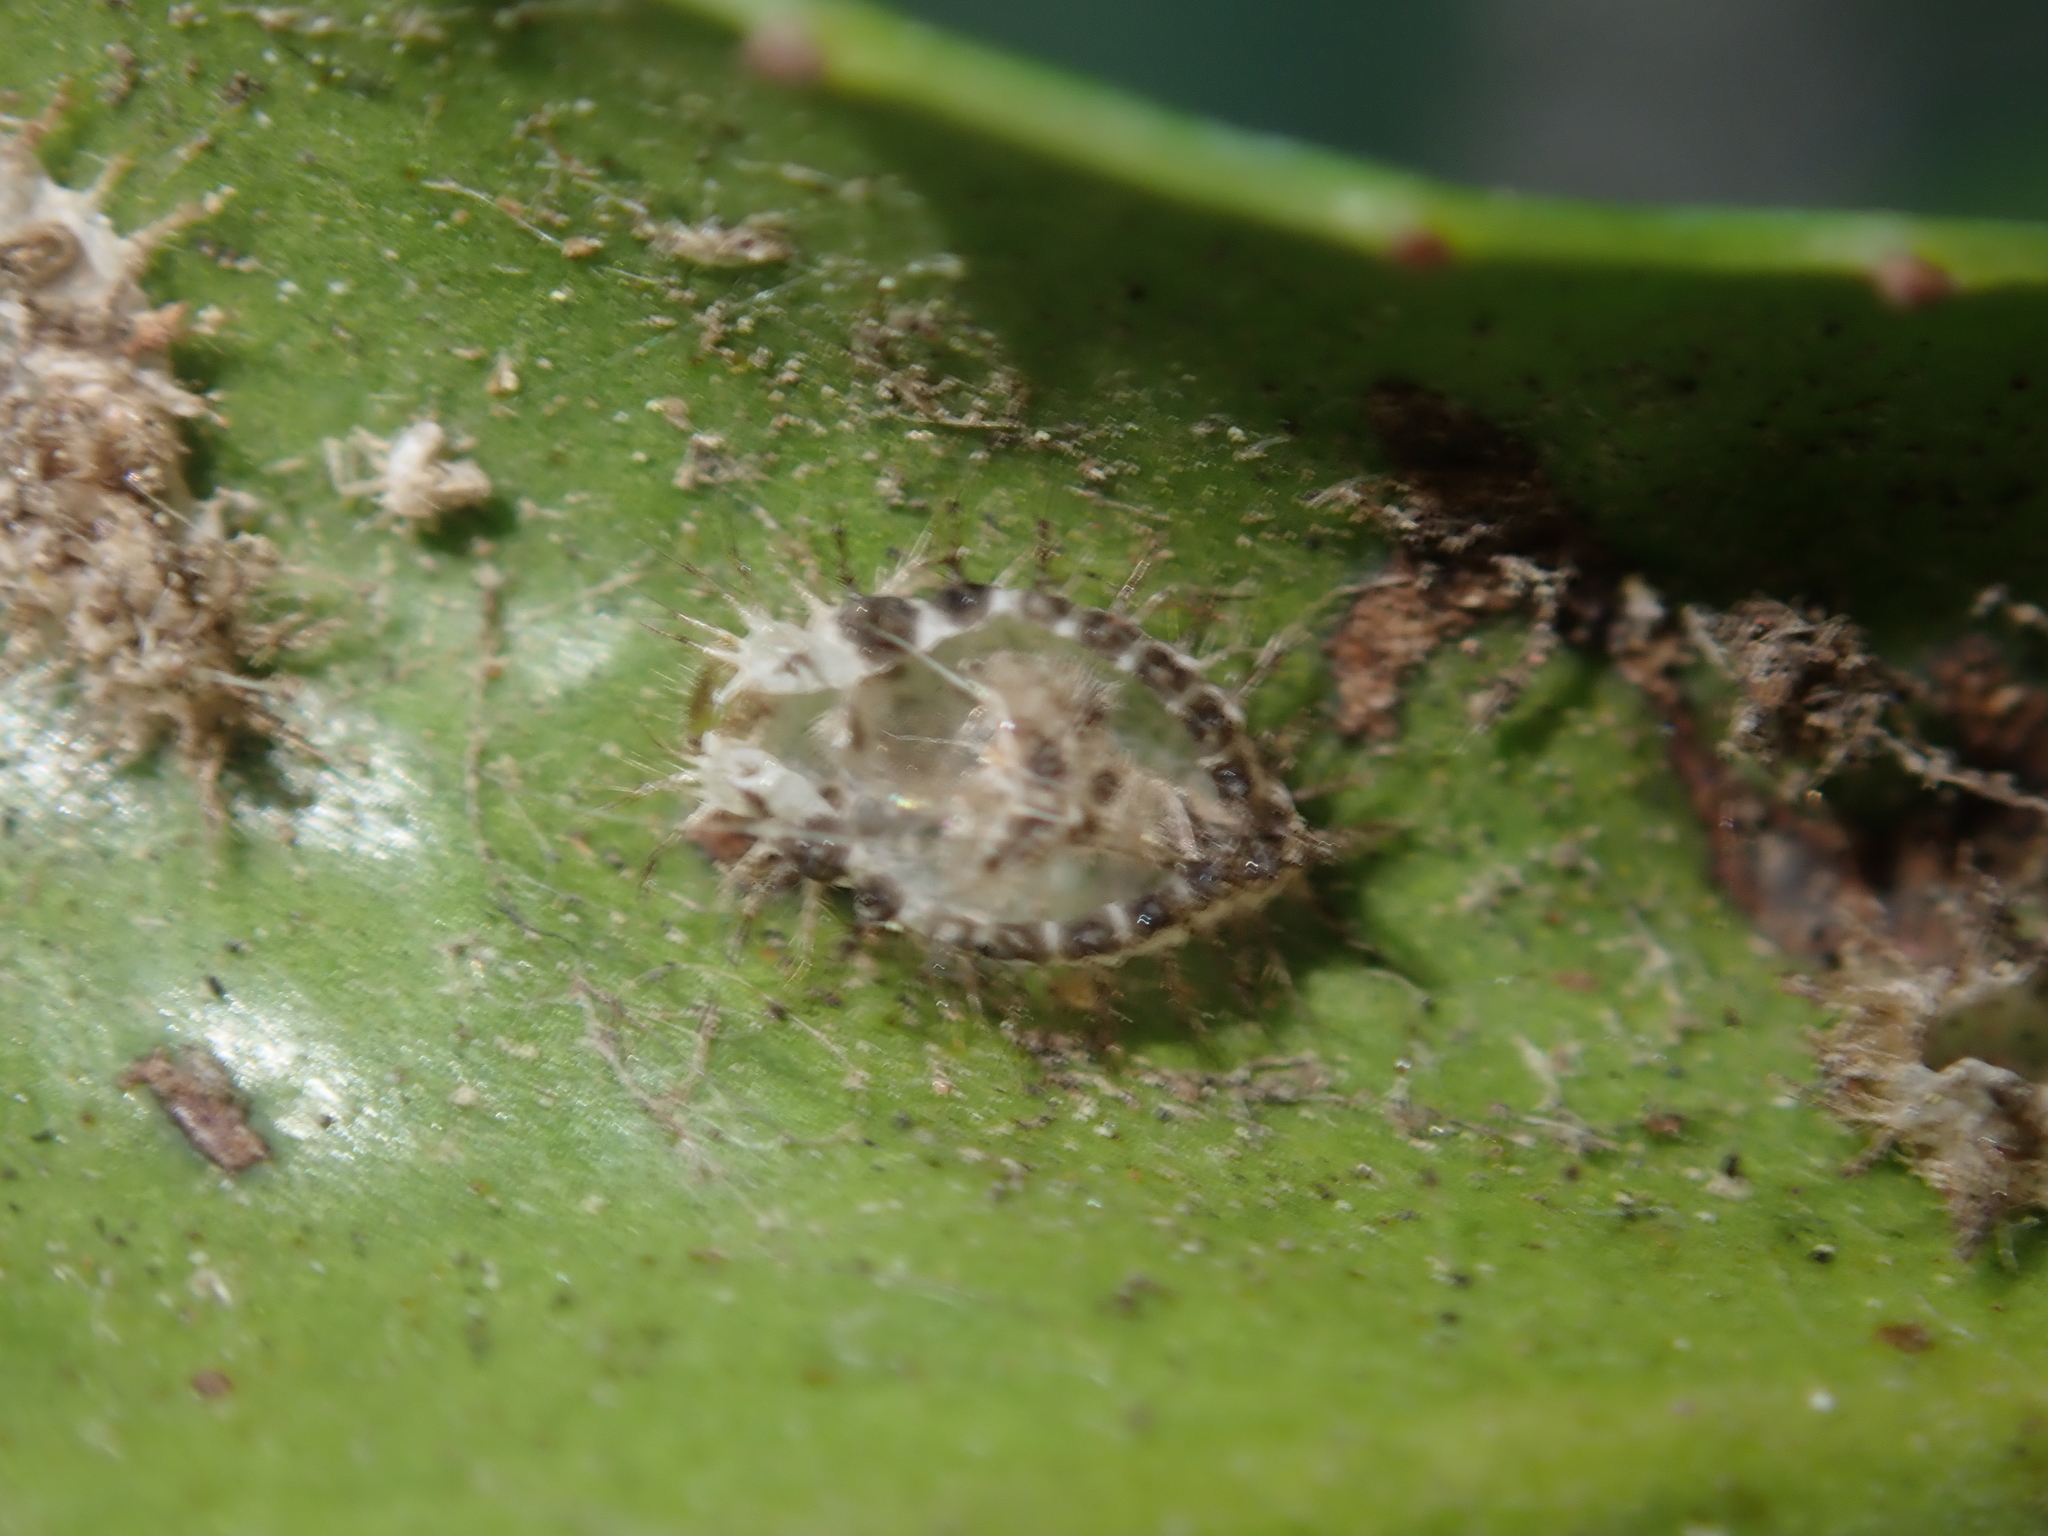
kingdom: Animalia
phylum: Arthropoda
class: Insecta
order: Coleoptera
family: Coccinellidae
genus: Halmus
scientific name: Halmus chalybeus
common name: Steel blue ladybird beetle
